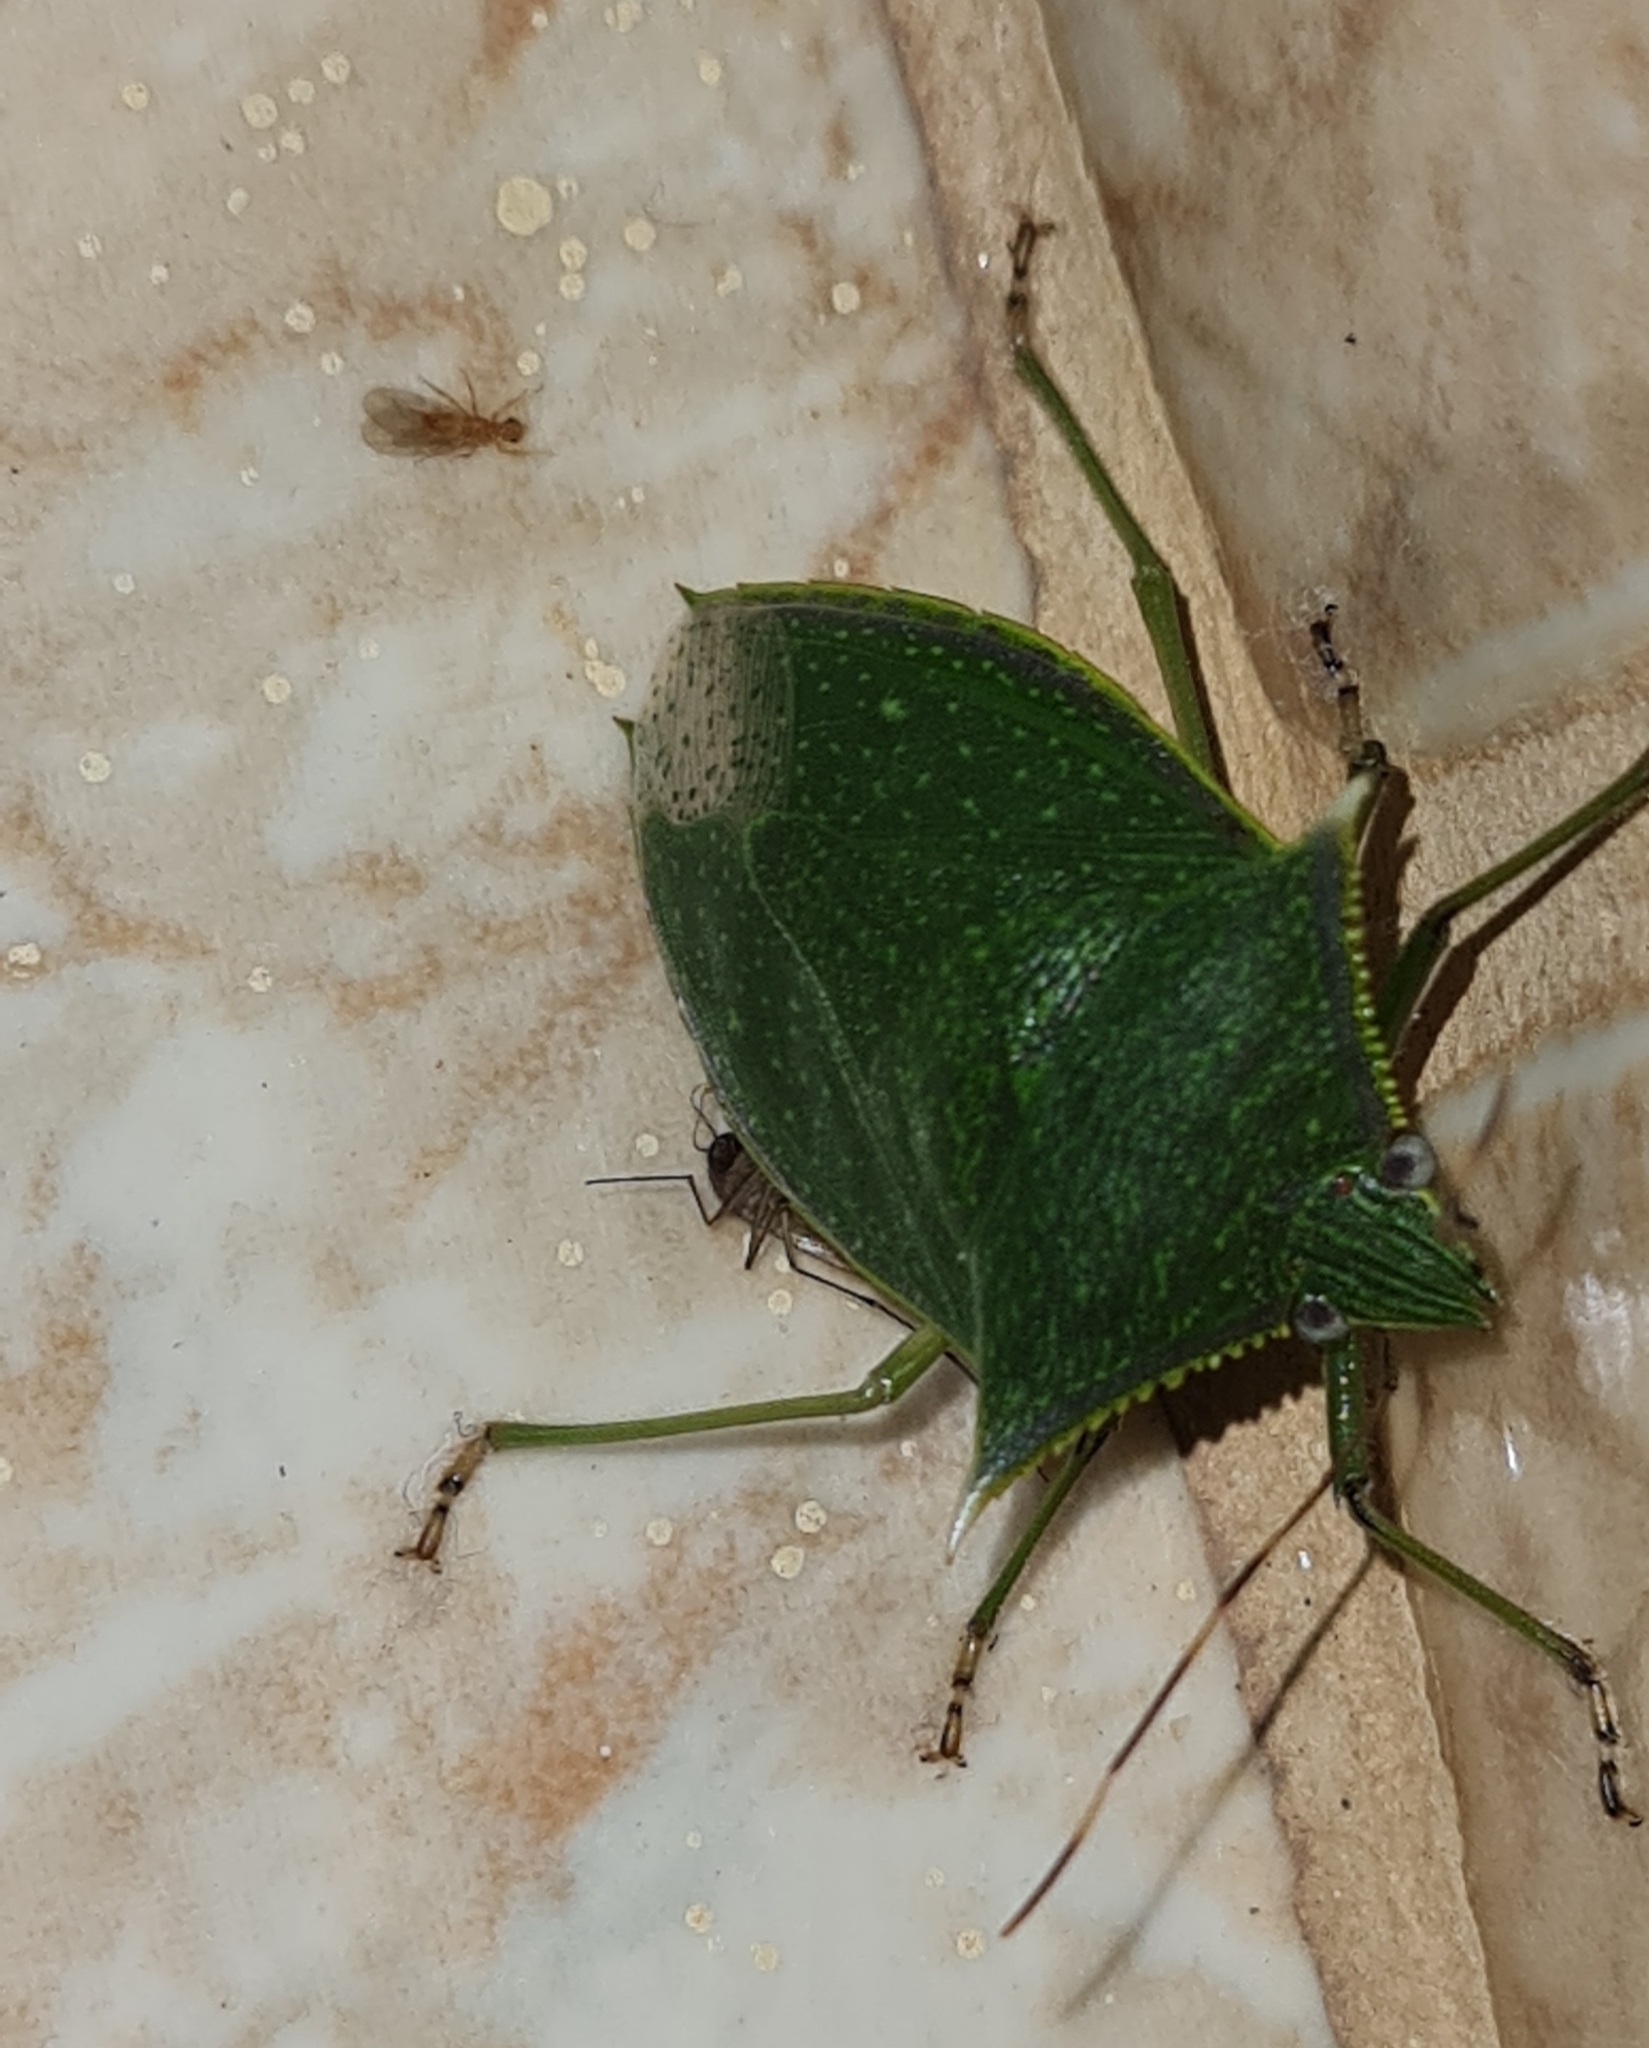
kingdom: Animalia
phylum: Arthropoda
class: Insecta
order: Hemiptera
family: Pentatomidae
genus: Loxa
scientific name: Loxa viridis
